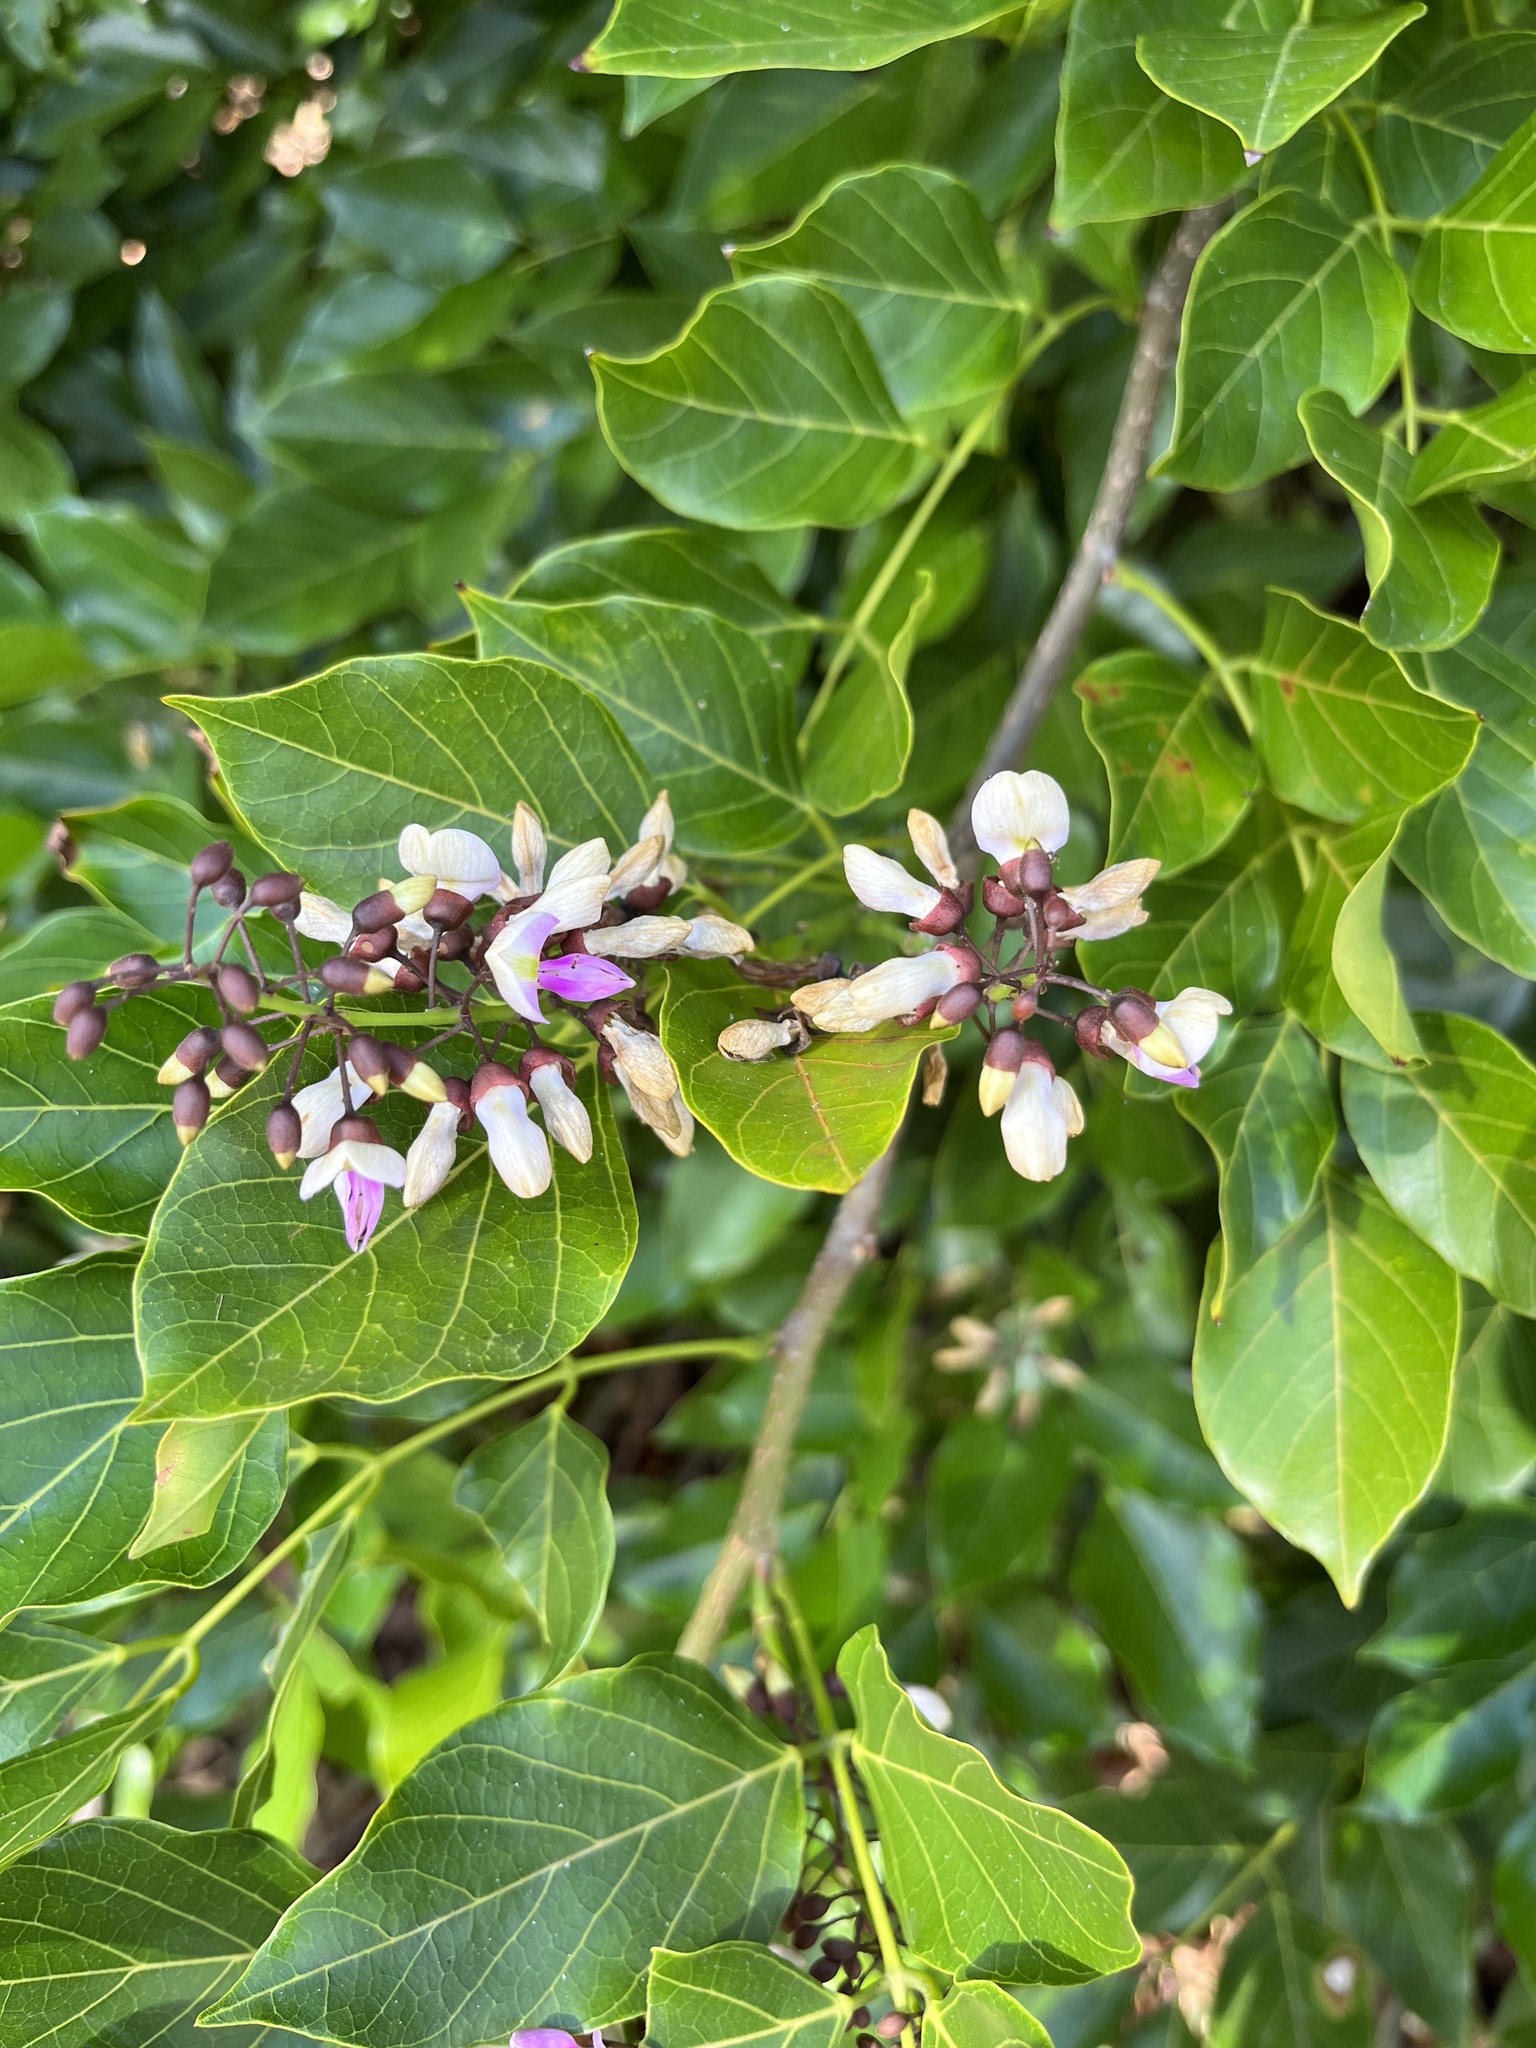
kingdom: Plantae
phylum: Tracheophyta
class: Magnoliopsida
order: Fabales
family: Fabaceae
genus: Pongamia
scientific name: Pongamia pinnata
